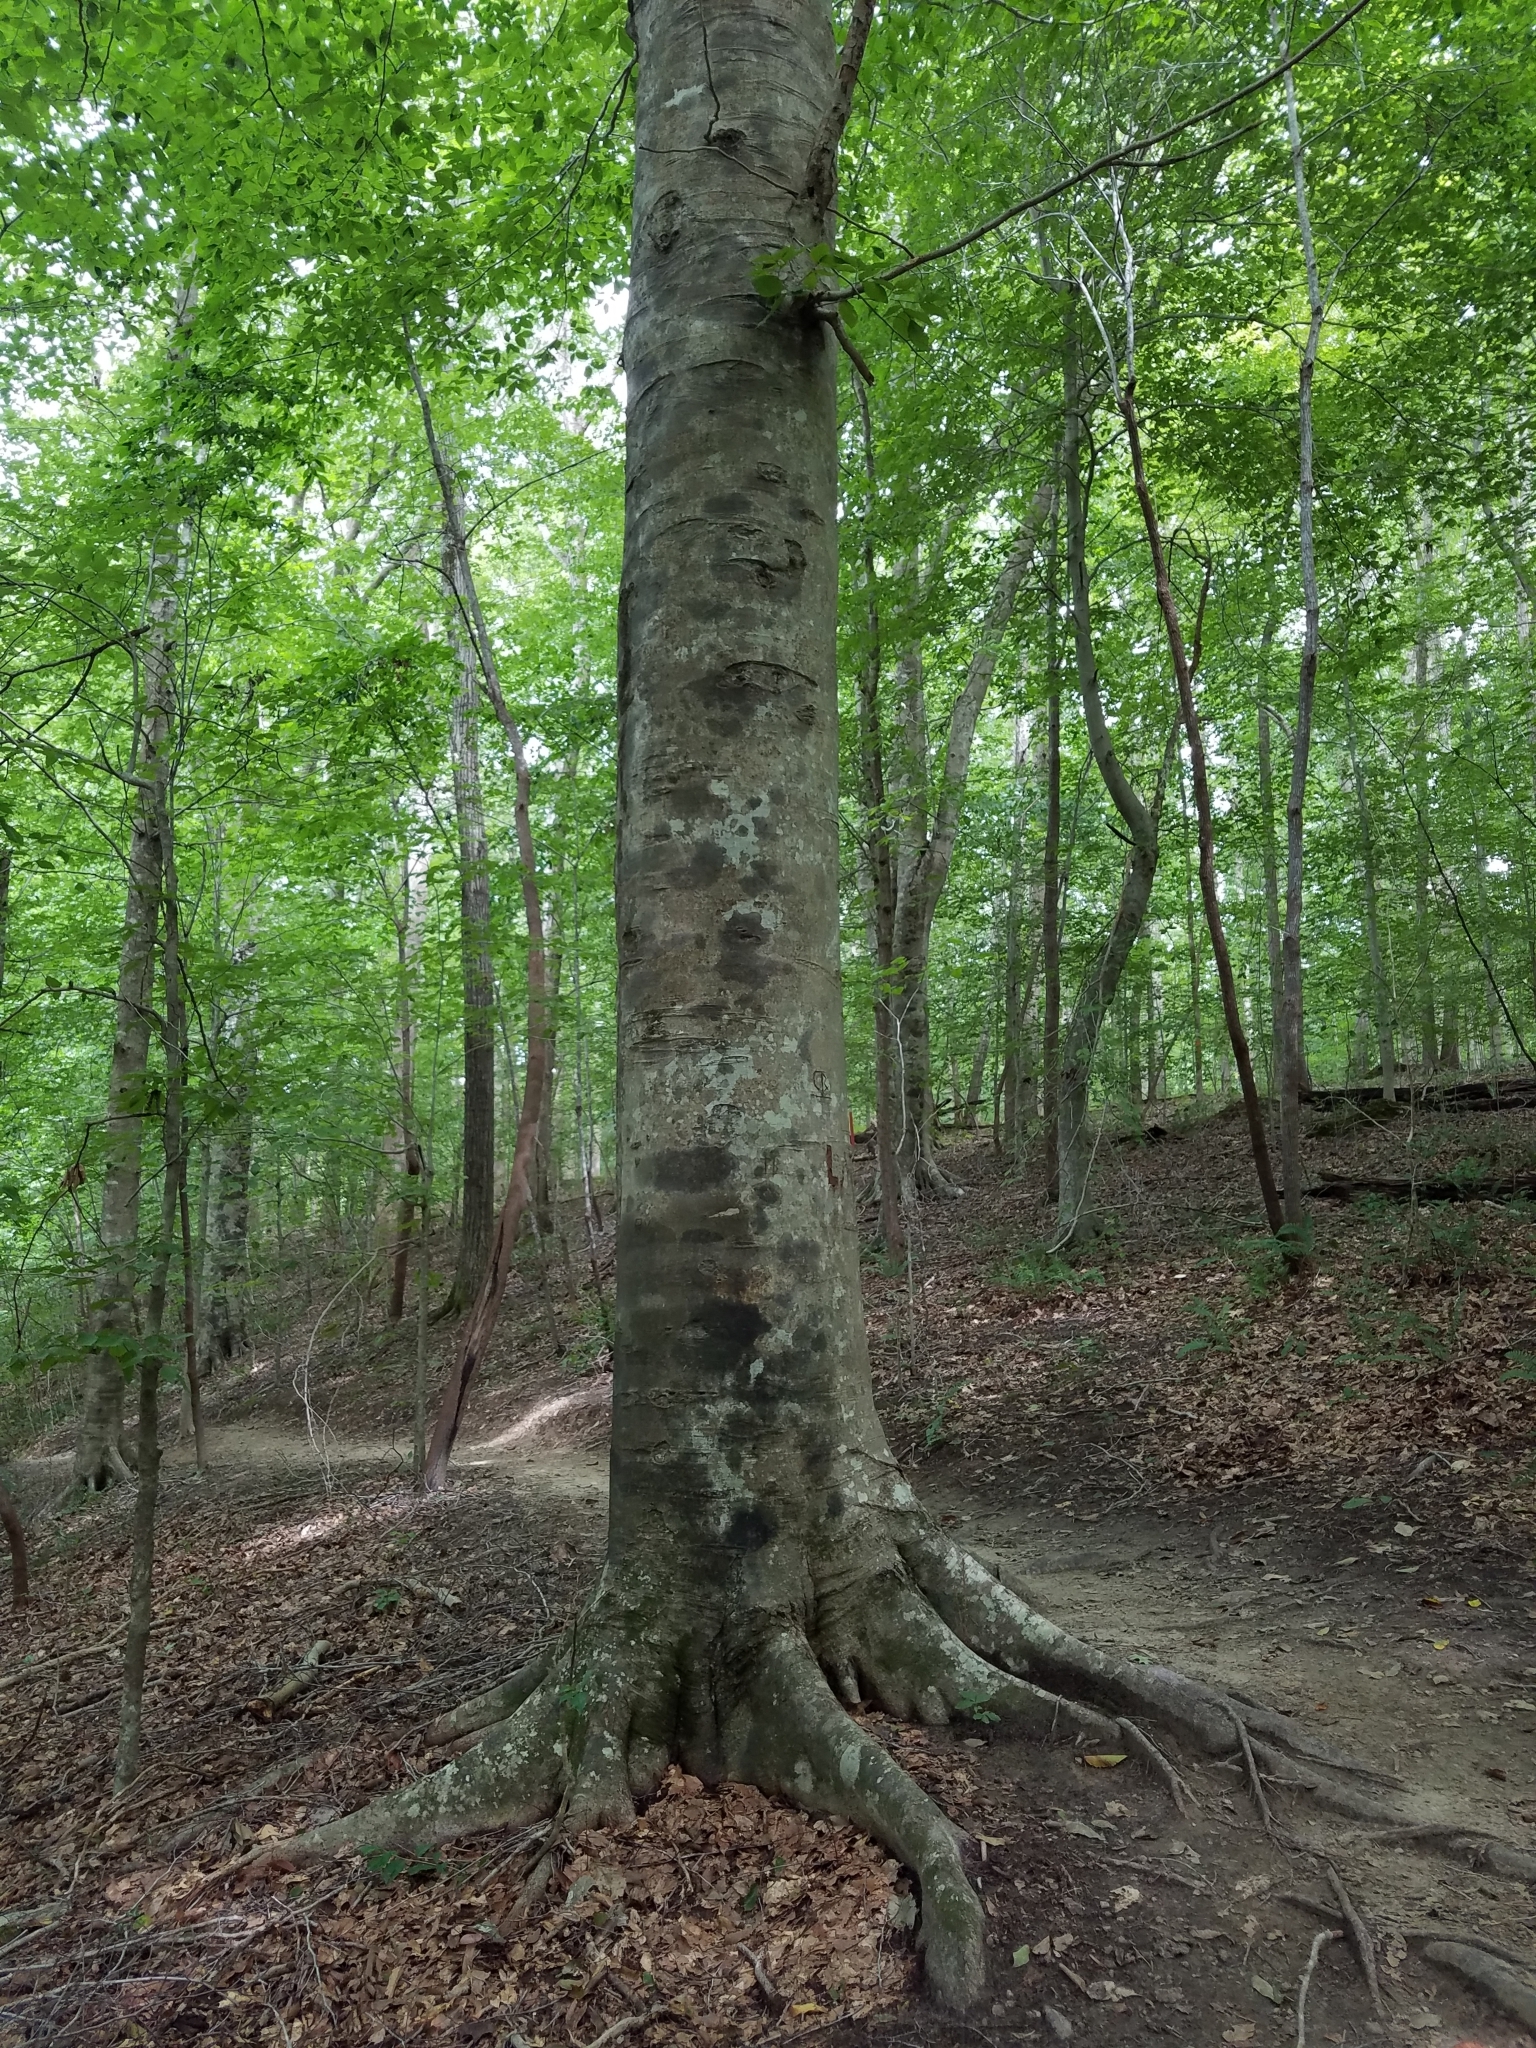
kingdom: Plantae
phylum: Tracheophyta
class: Magnoliopsida
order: Fagales
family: Fagaceae
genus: Fagus
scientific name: Fagus grandifolia
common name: American beech
